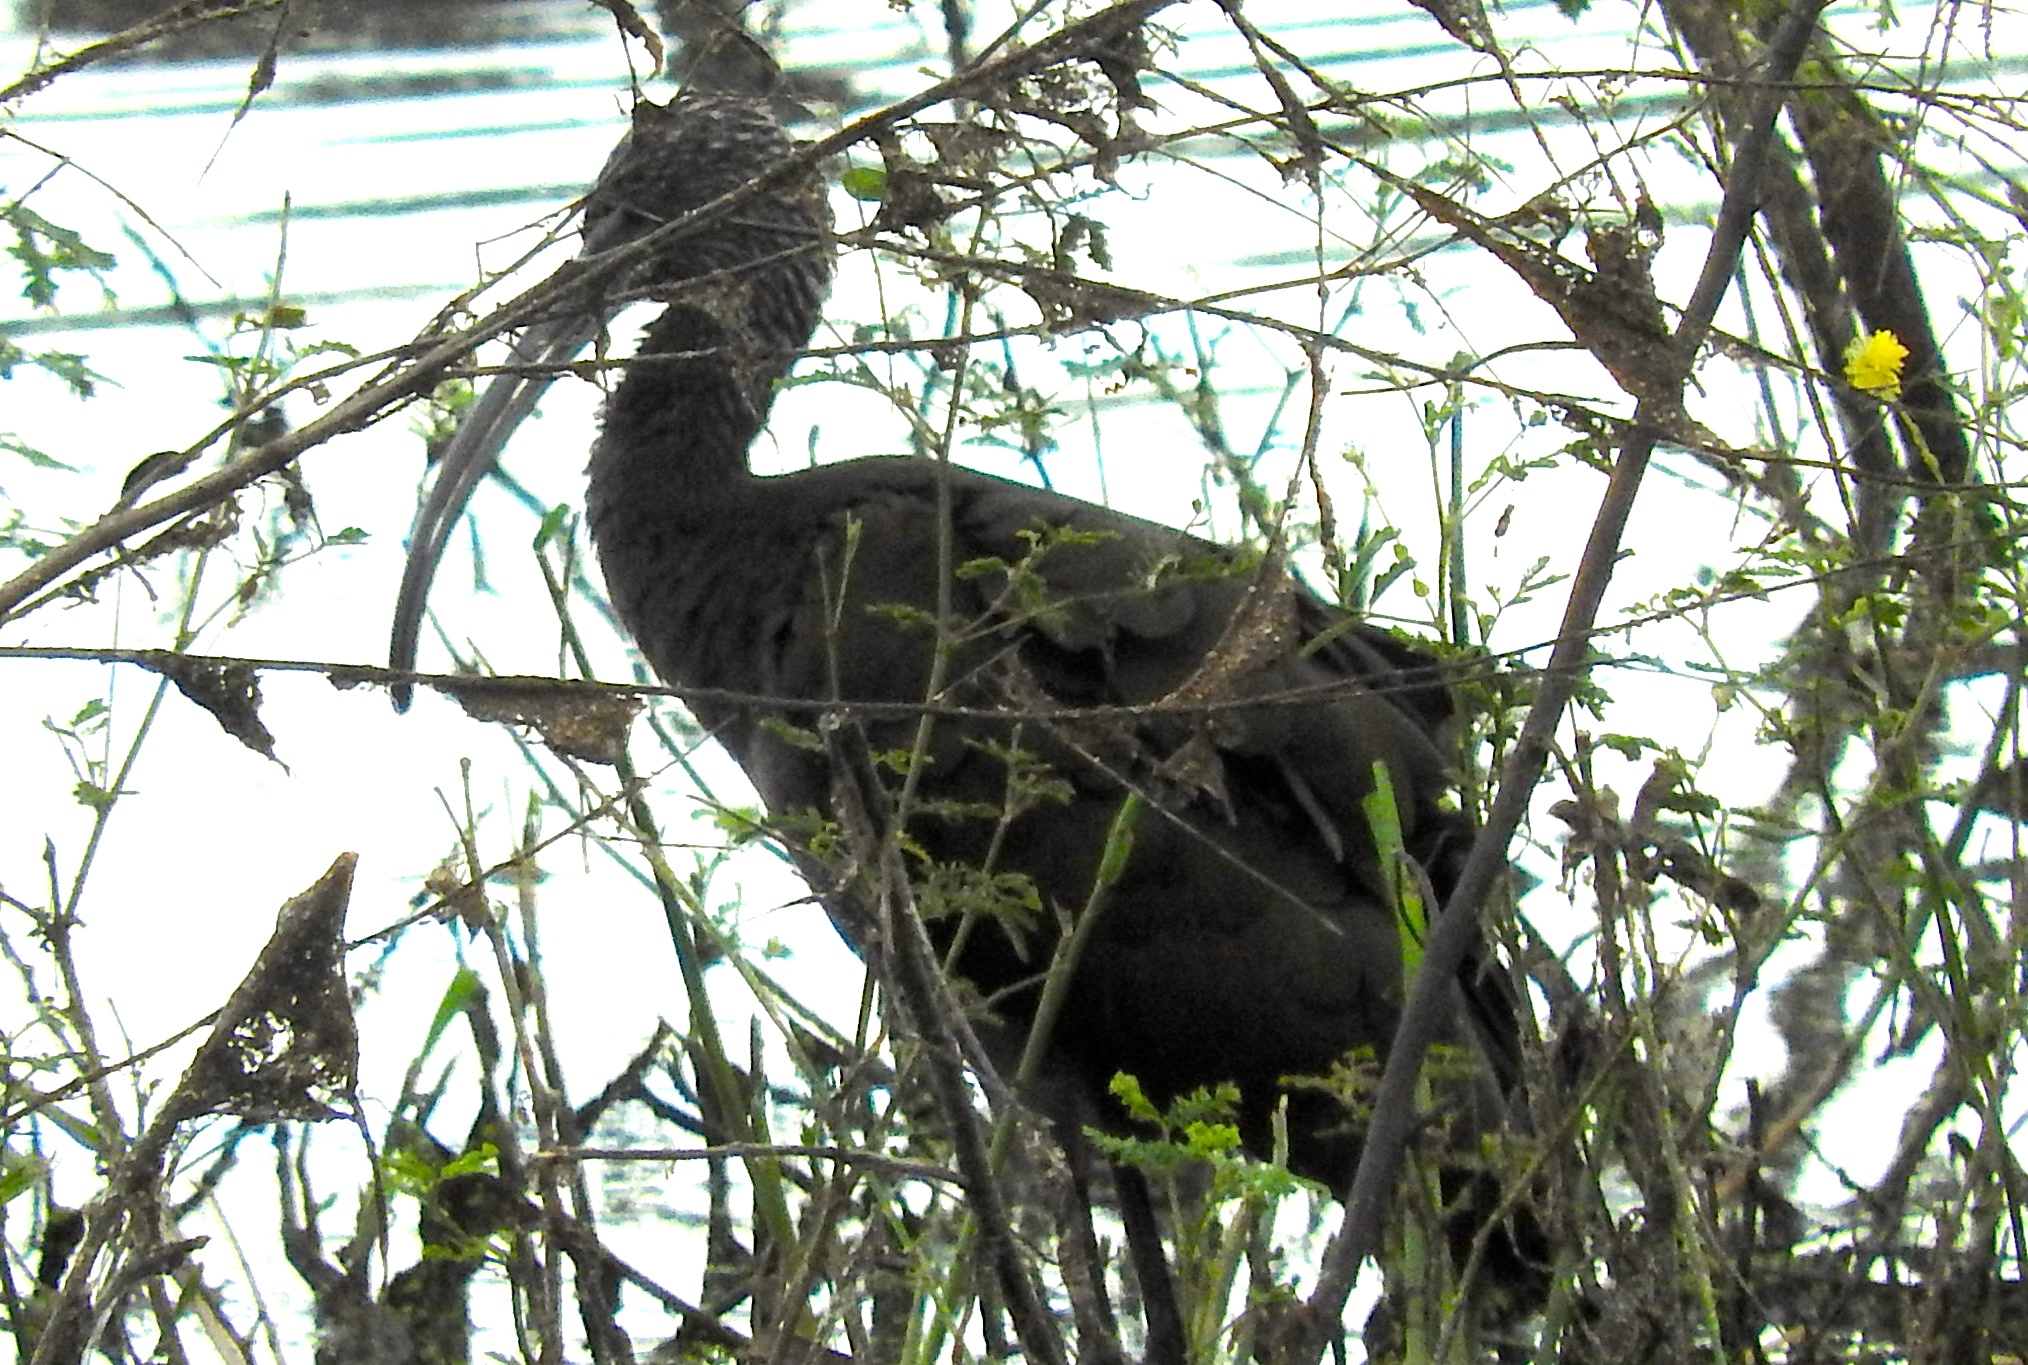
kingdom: Animalia
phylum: Chordata
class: Aves
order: Pelecaniformes
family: Threskiornithidae
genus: Plegadis
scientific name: Plegadis chihi
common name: White-faced ibis
